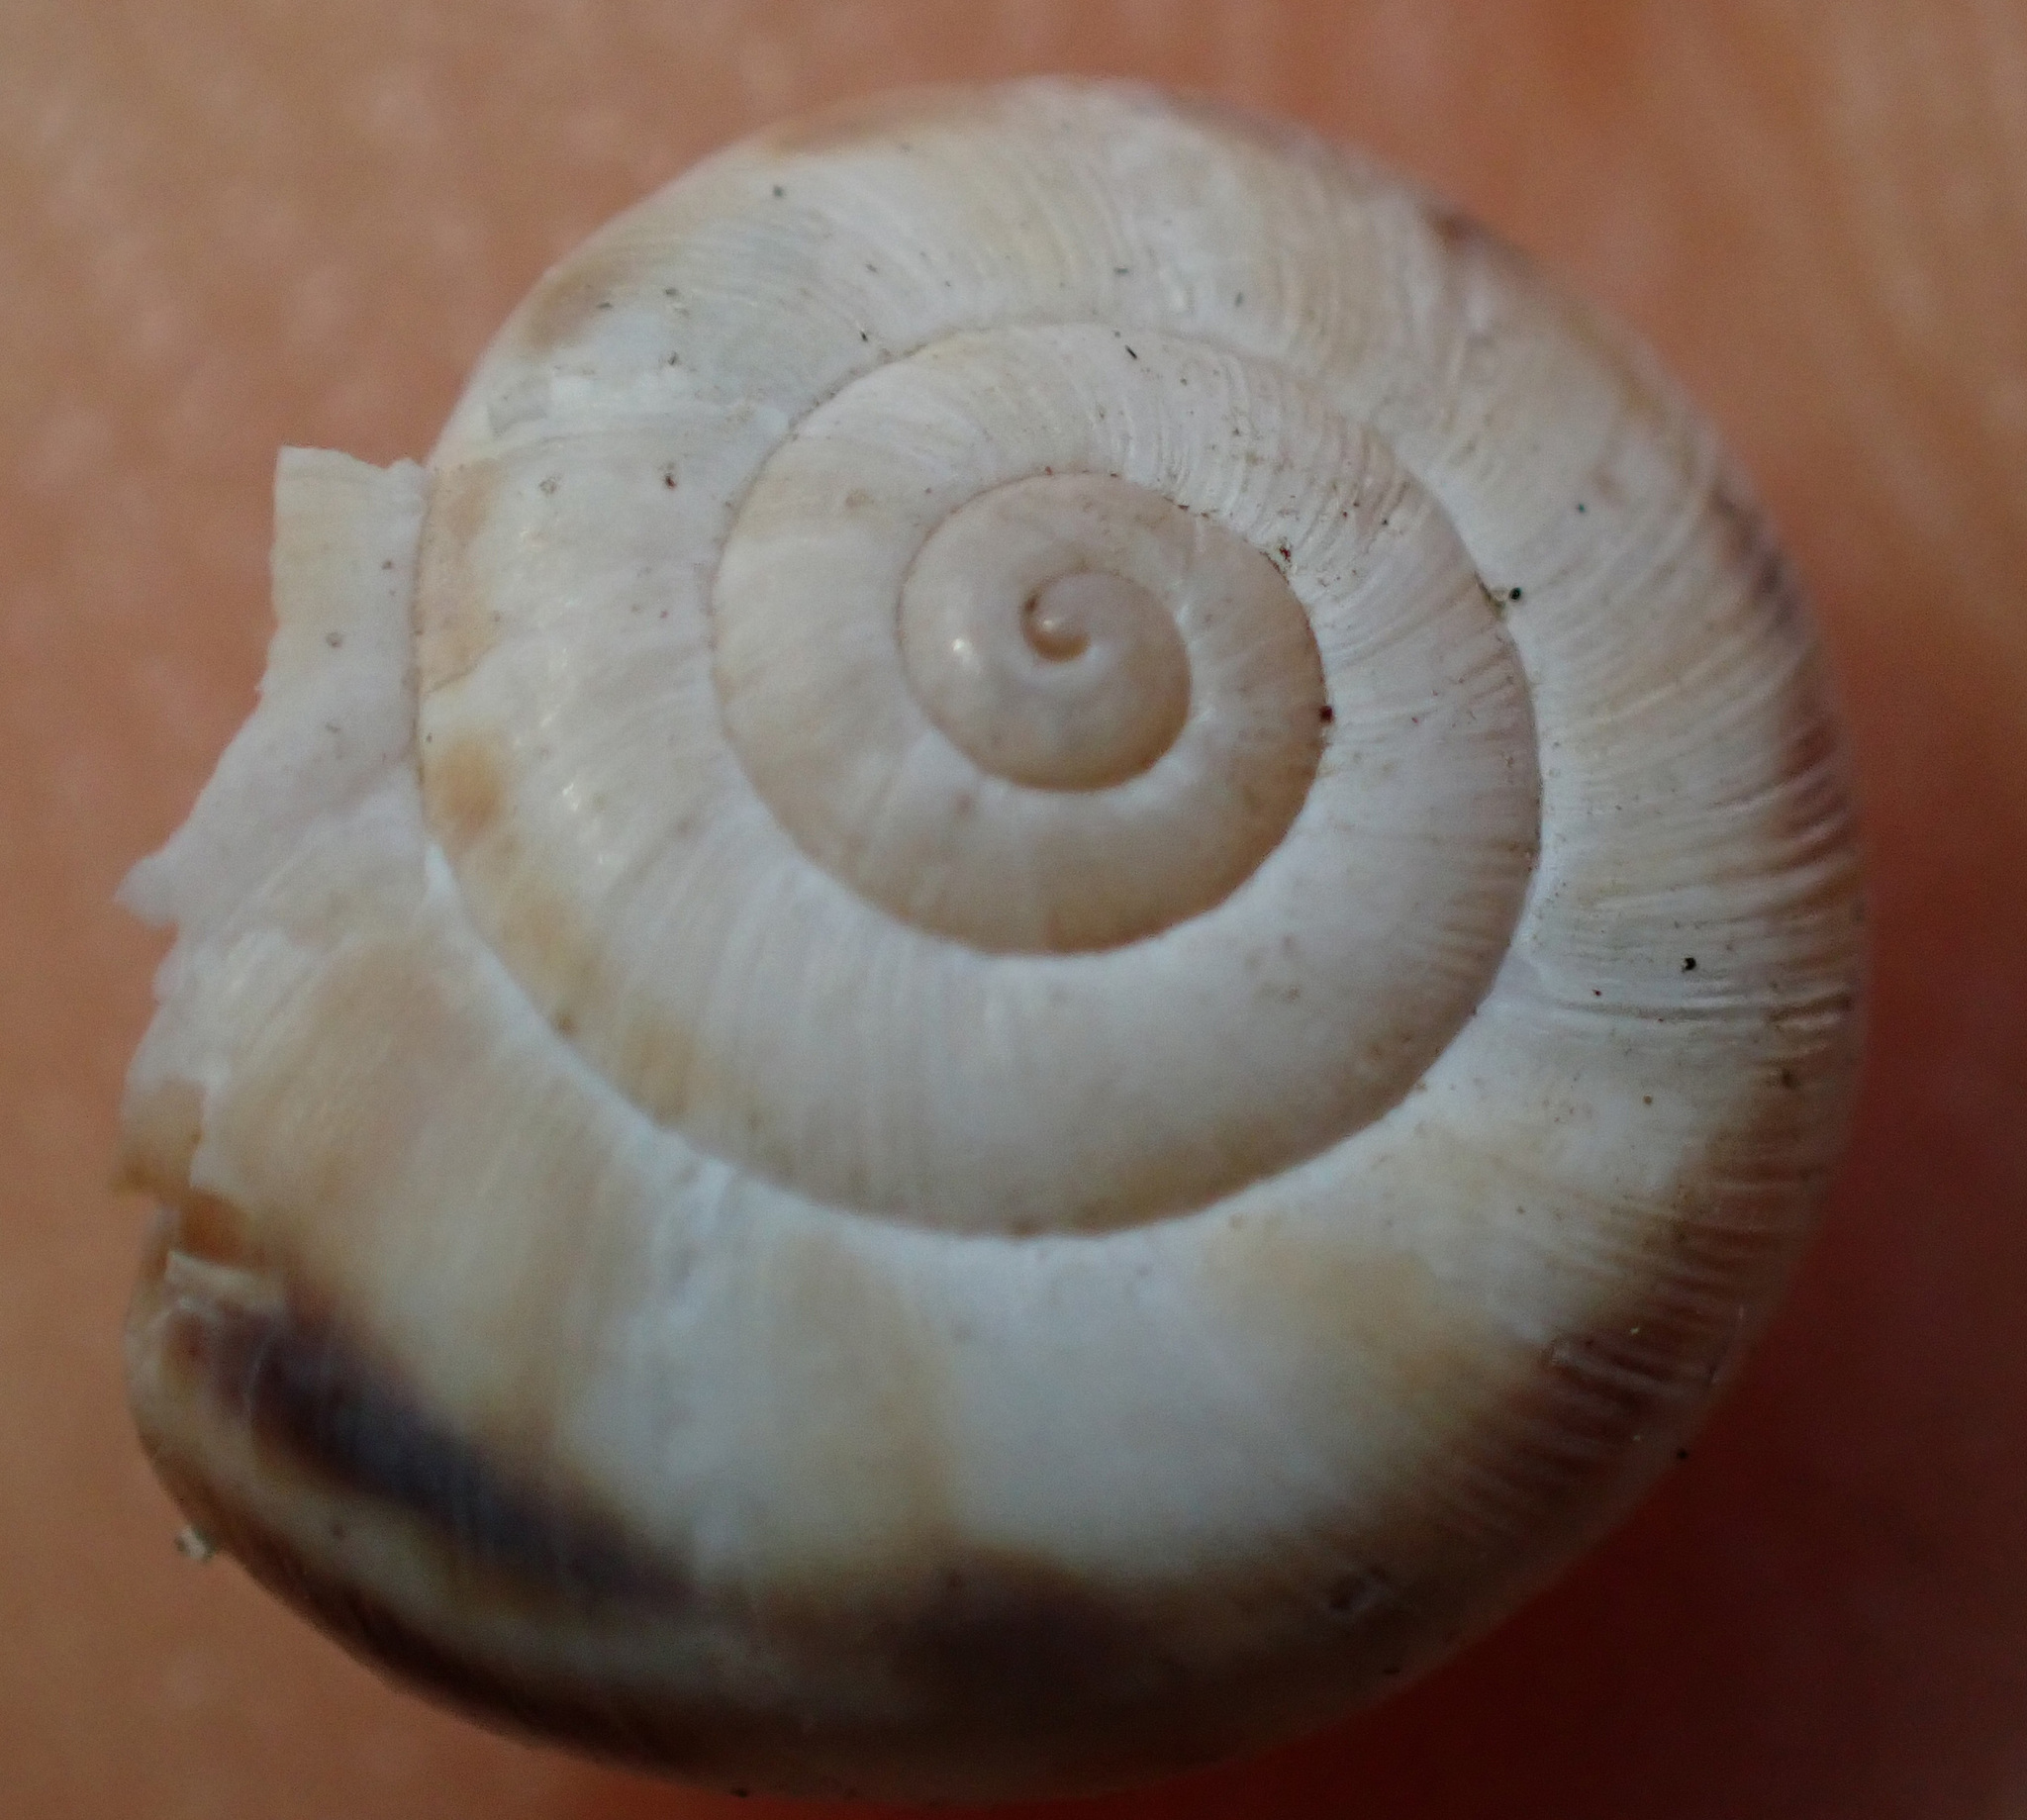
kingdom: Animalia
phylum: Mollusca
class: Gastropoda
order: Stylommatophora
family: Geomitridae
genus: Xerolenta
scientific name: Xerolenta obvia
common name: White heath snail
